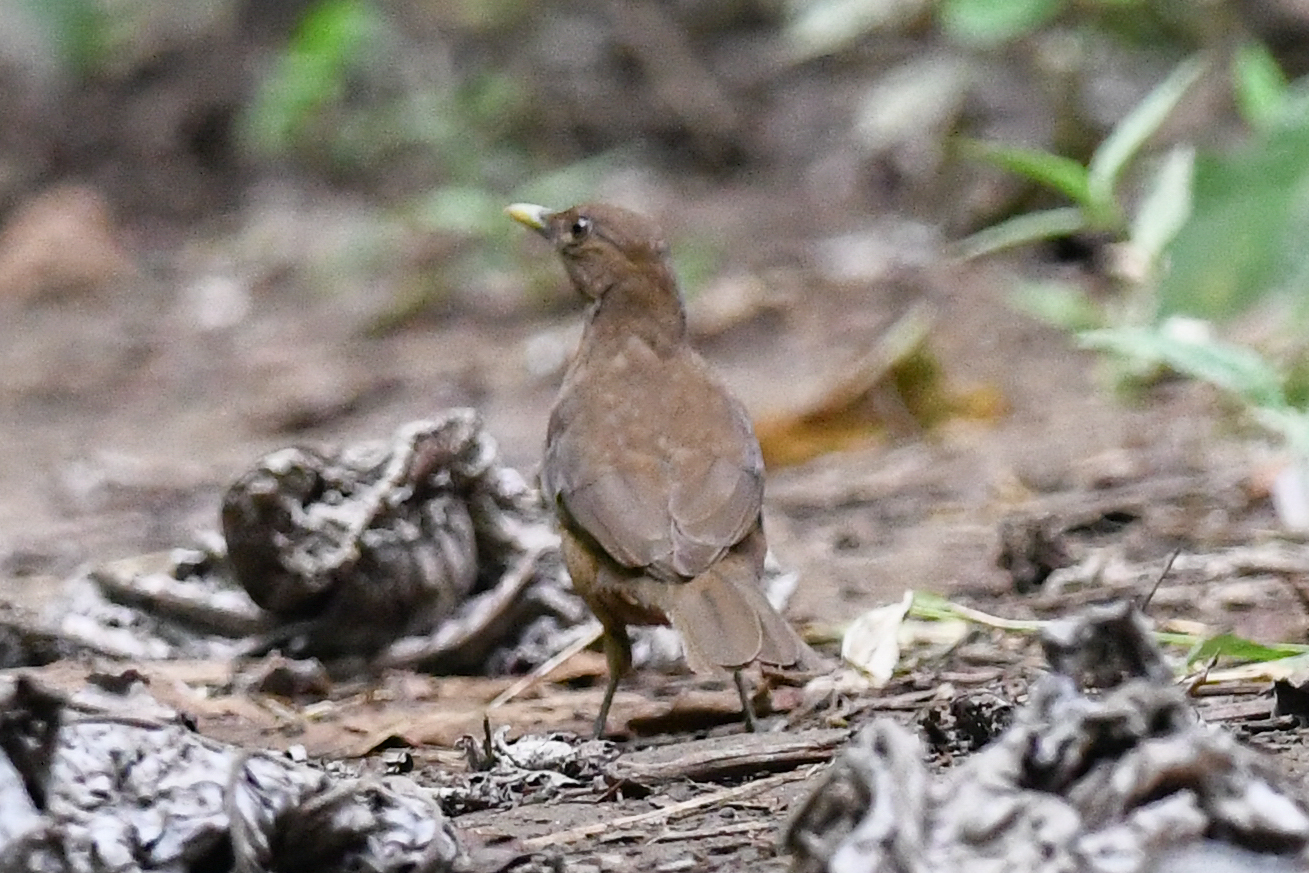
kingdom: Animalia
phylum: Chordata
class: Aves
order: Passeriformes
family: Turdidae
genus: Turdus
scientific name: Turdus grayi
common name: Clay-colored thrush
